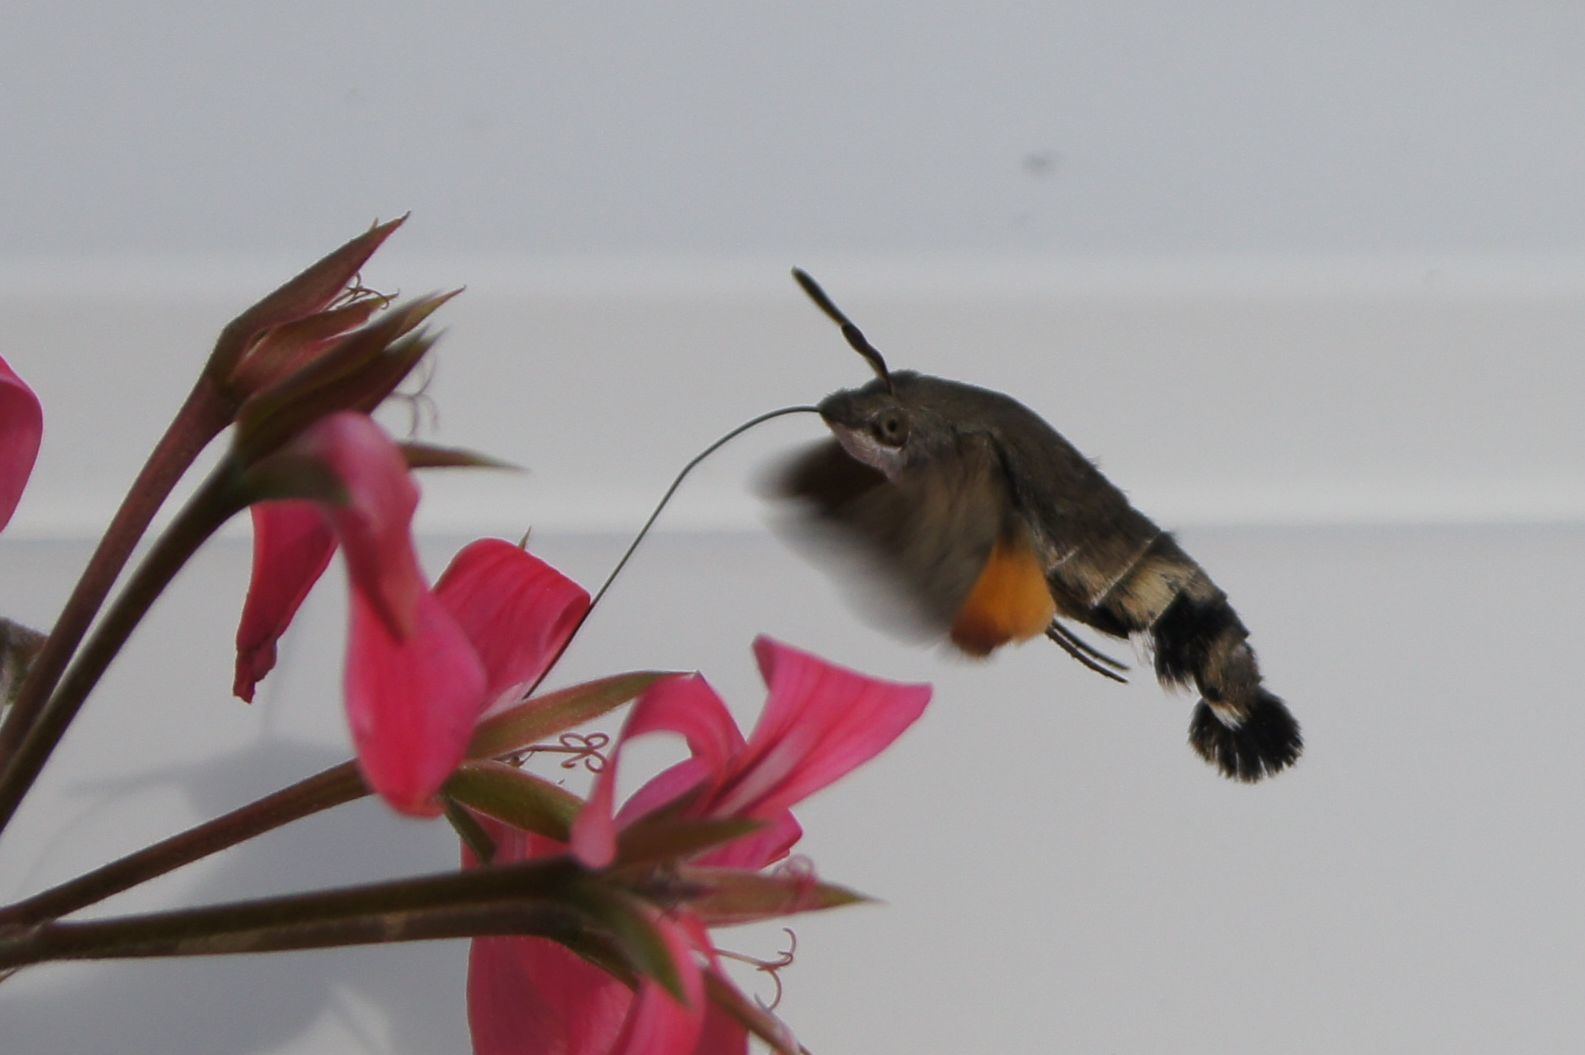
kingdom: Animalia
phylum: Arthropoda
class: Insecta
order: Lepidoptera
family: Sphingidae
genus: Macroglossum
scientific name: Macroglossum stellatarum
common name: Humming-bird hawk-moth
